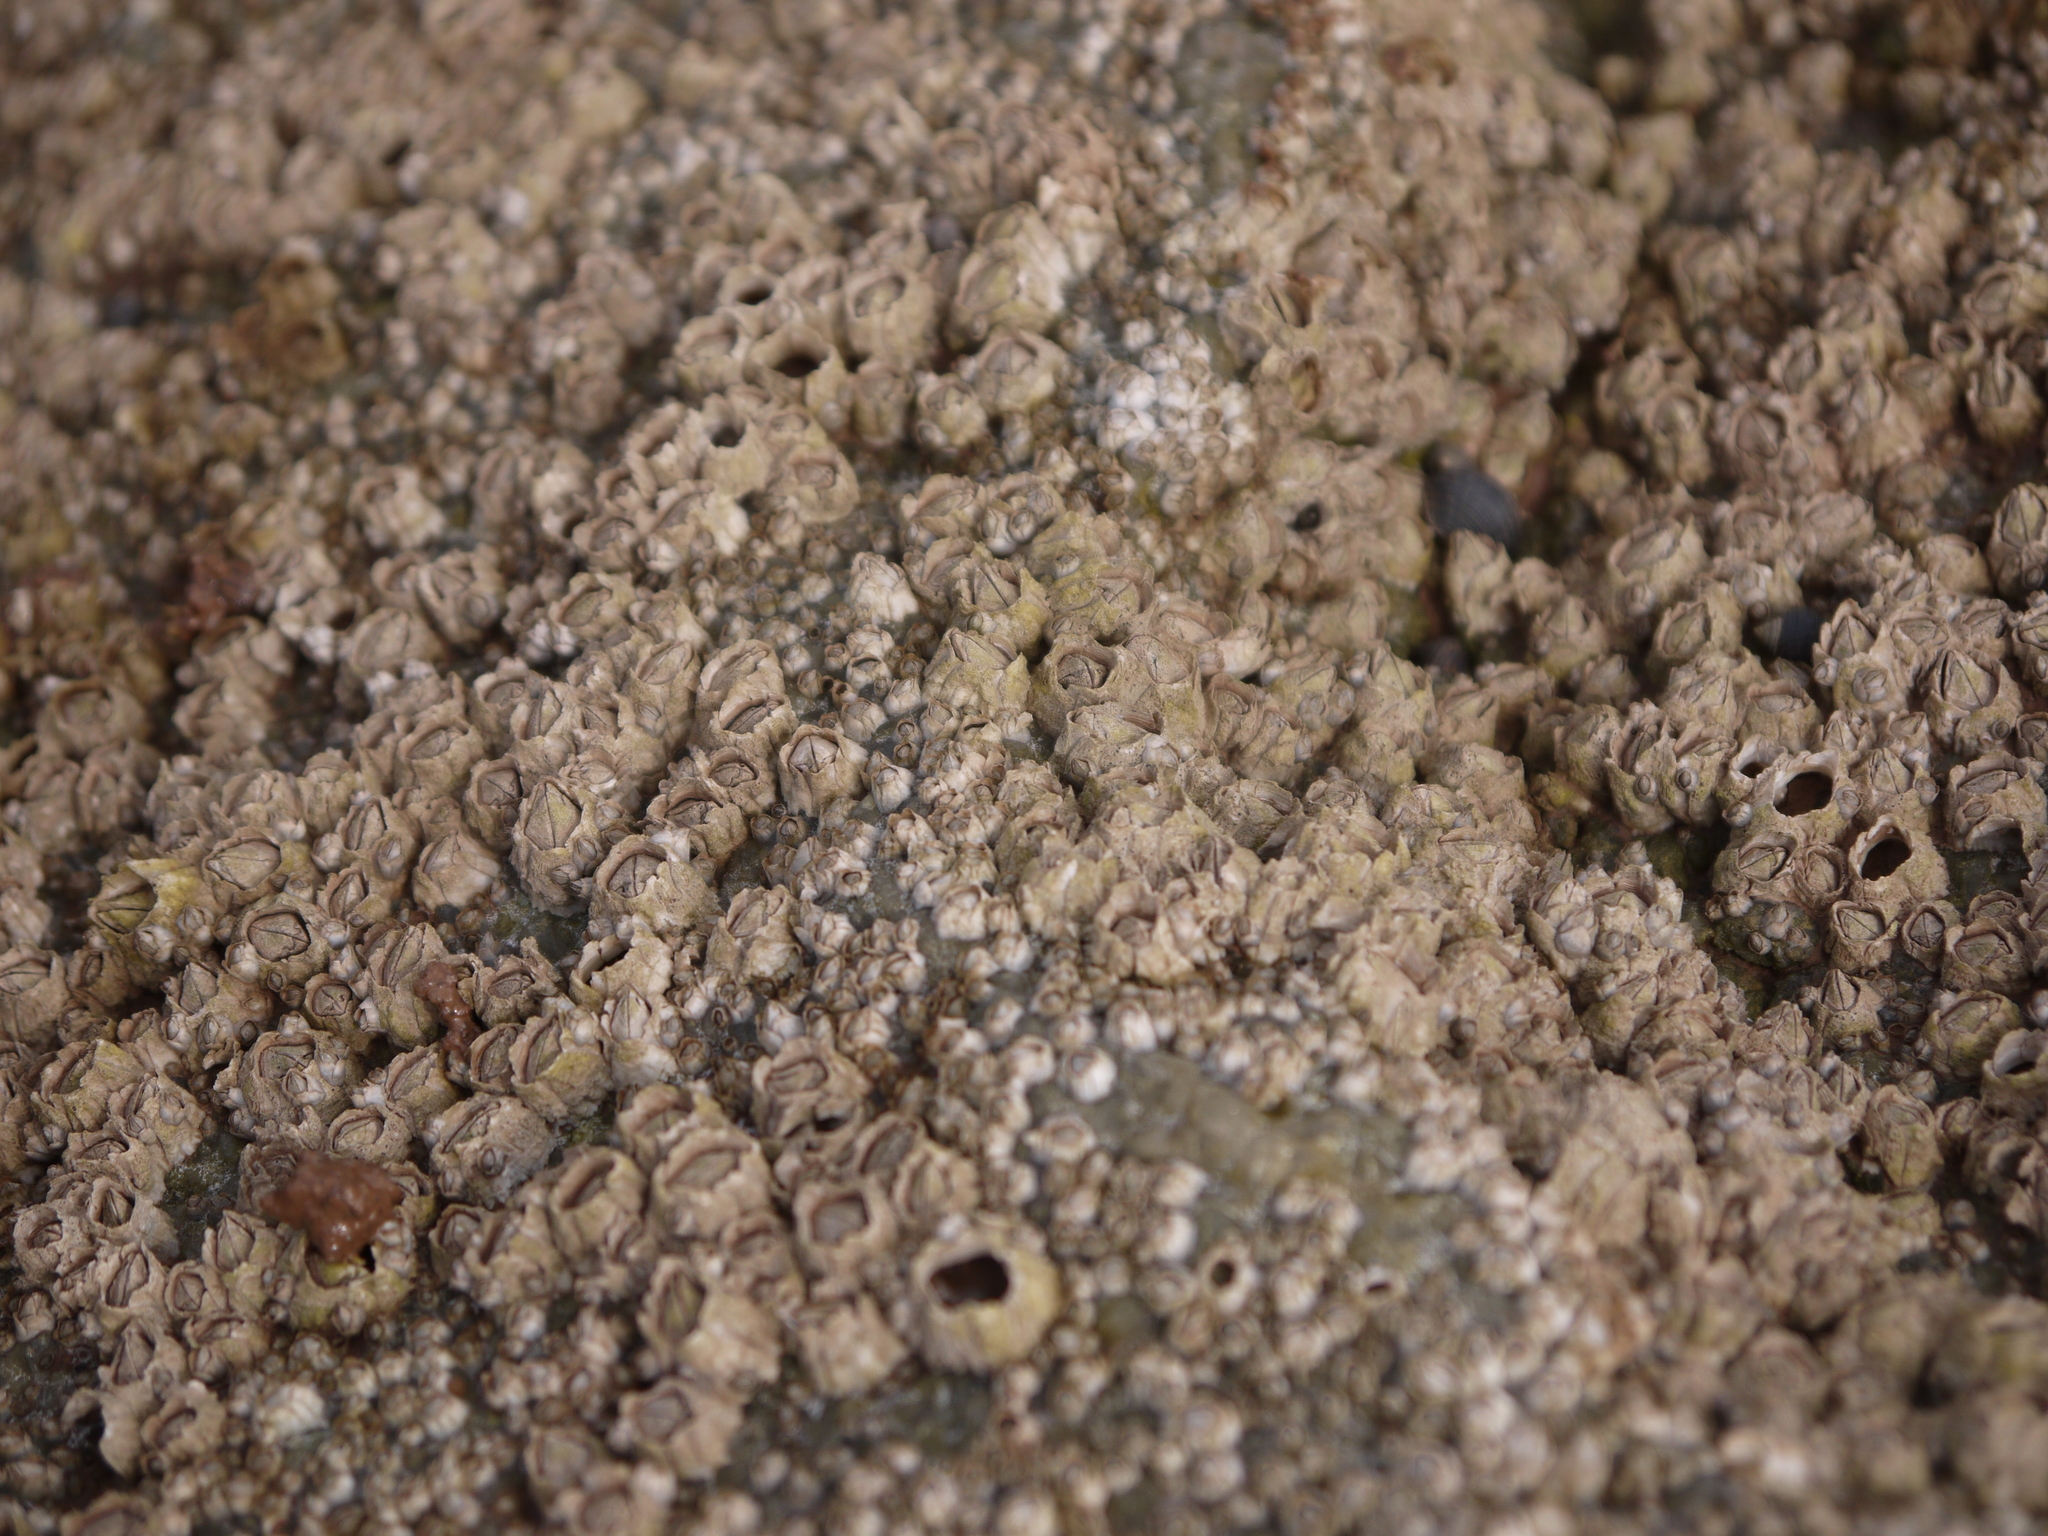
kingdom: Animalia
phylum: Arthropoda
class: Maxillopoda
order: Sessilia
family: Archaeobalanidae
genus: Semibalanus
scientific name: Semibalanus balanoides
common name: Acorn barnacle
